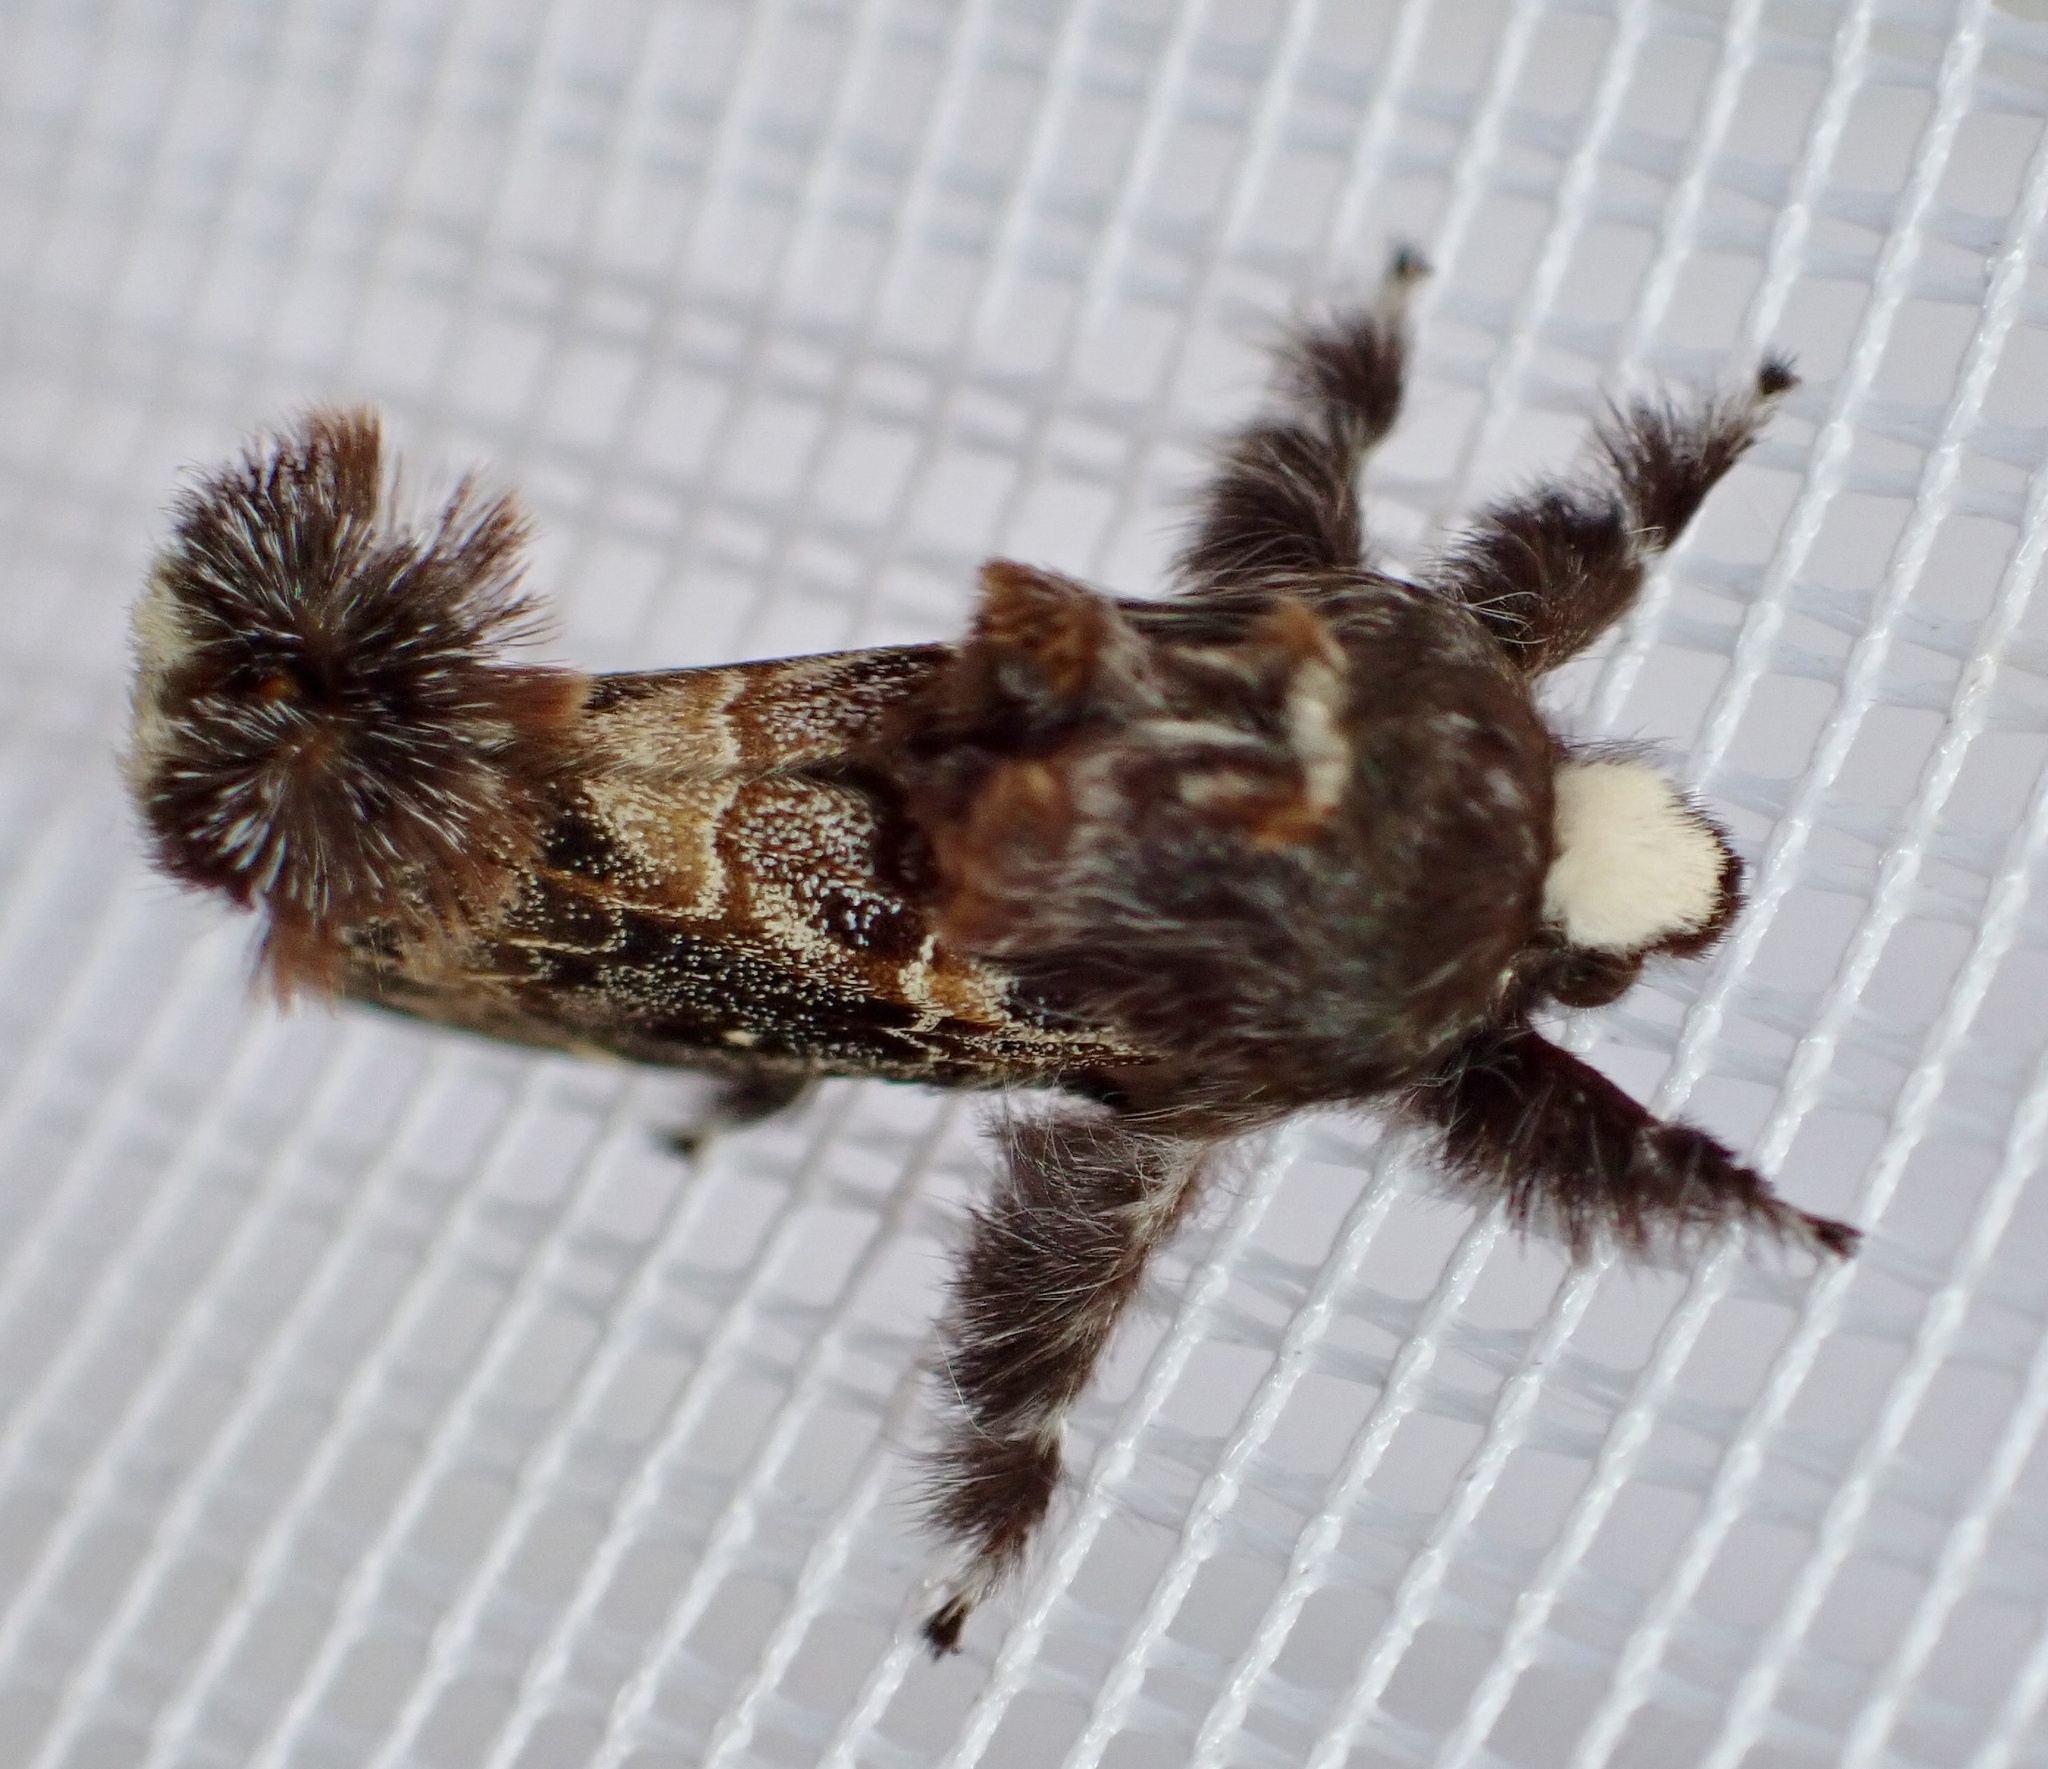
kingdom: Animalia
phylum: Arthropoda
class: Insecta
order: Lepidoptera
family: Lasiocampidae
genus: Streblote
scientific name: Streblote proserpina
